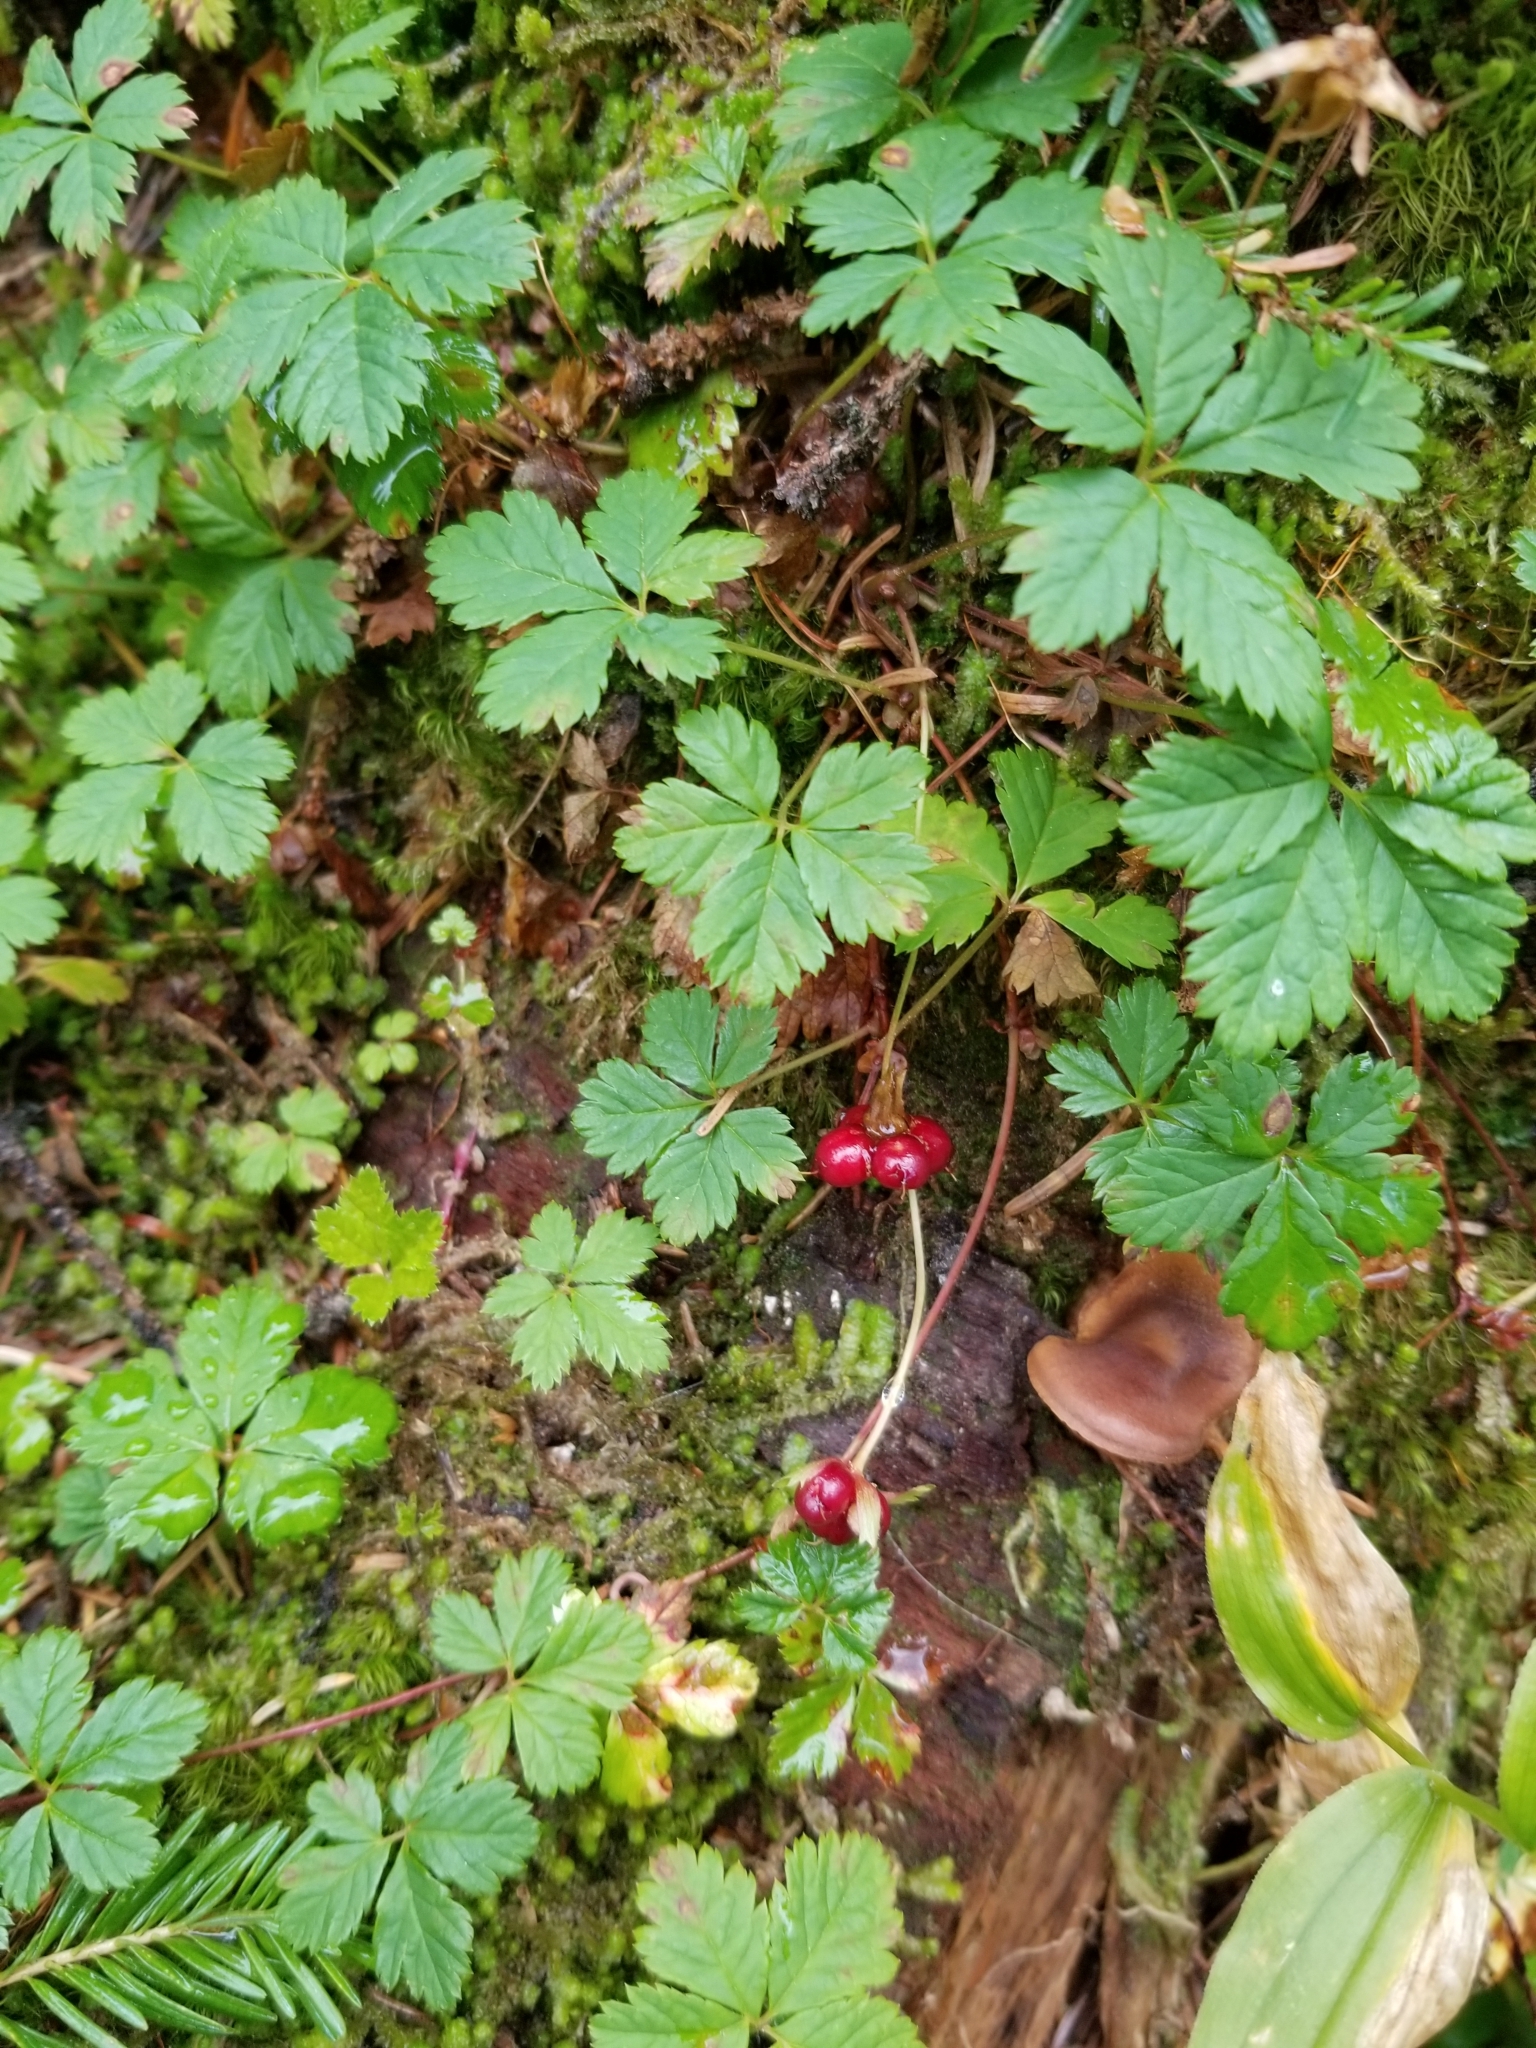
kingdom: Plantae
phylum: Tracheophyta
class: Magnoliopsida
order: Rosales
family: Rosaceae
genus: Rubus
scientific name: Rubus pedatus
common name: Creeping raspberry
